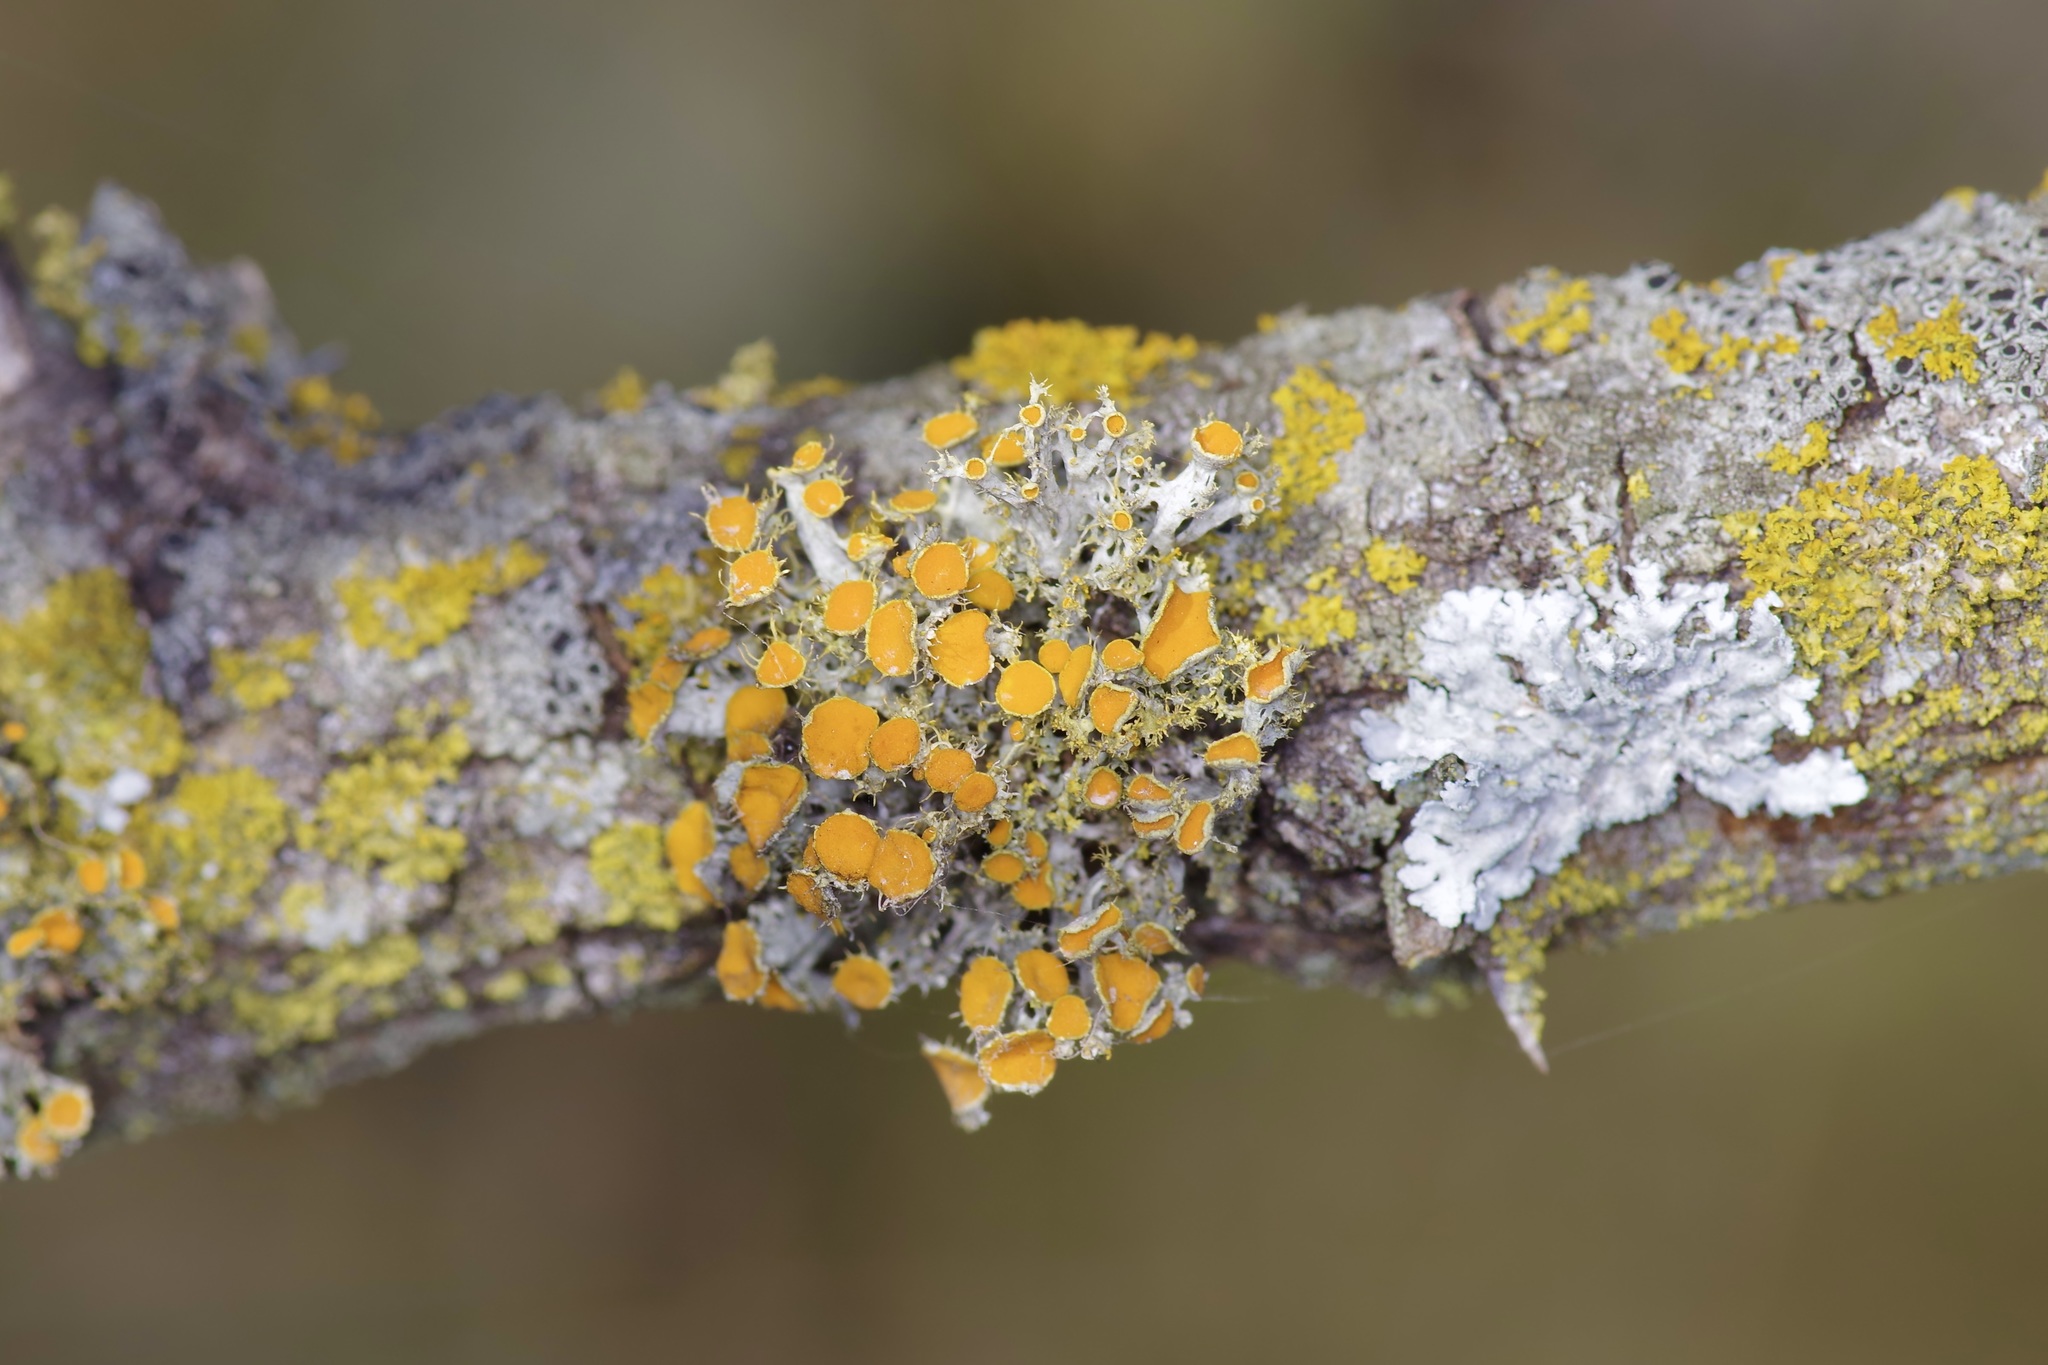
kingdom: Fungi
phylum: Ascomycota
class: Lecanoromycetes
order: Teloschistales
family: Teloschistaceae
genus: Niorma
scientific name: Niorma chrysophthalma
